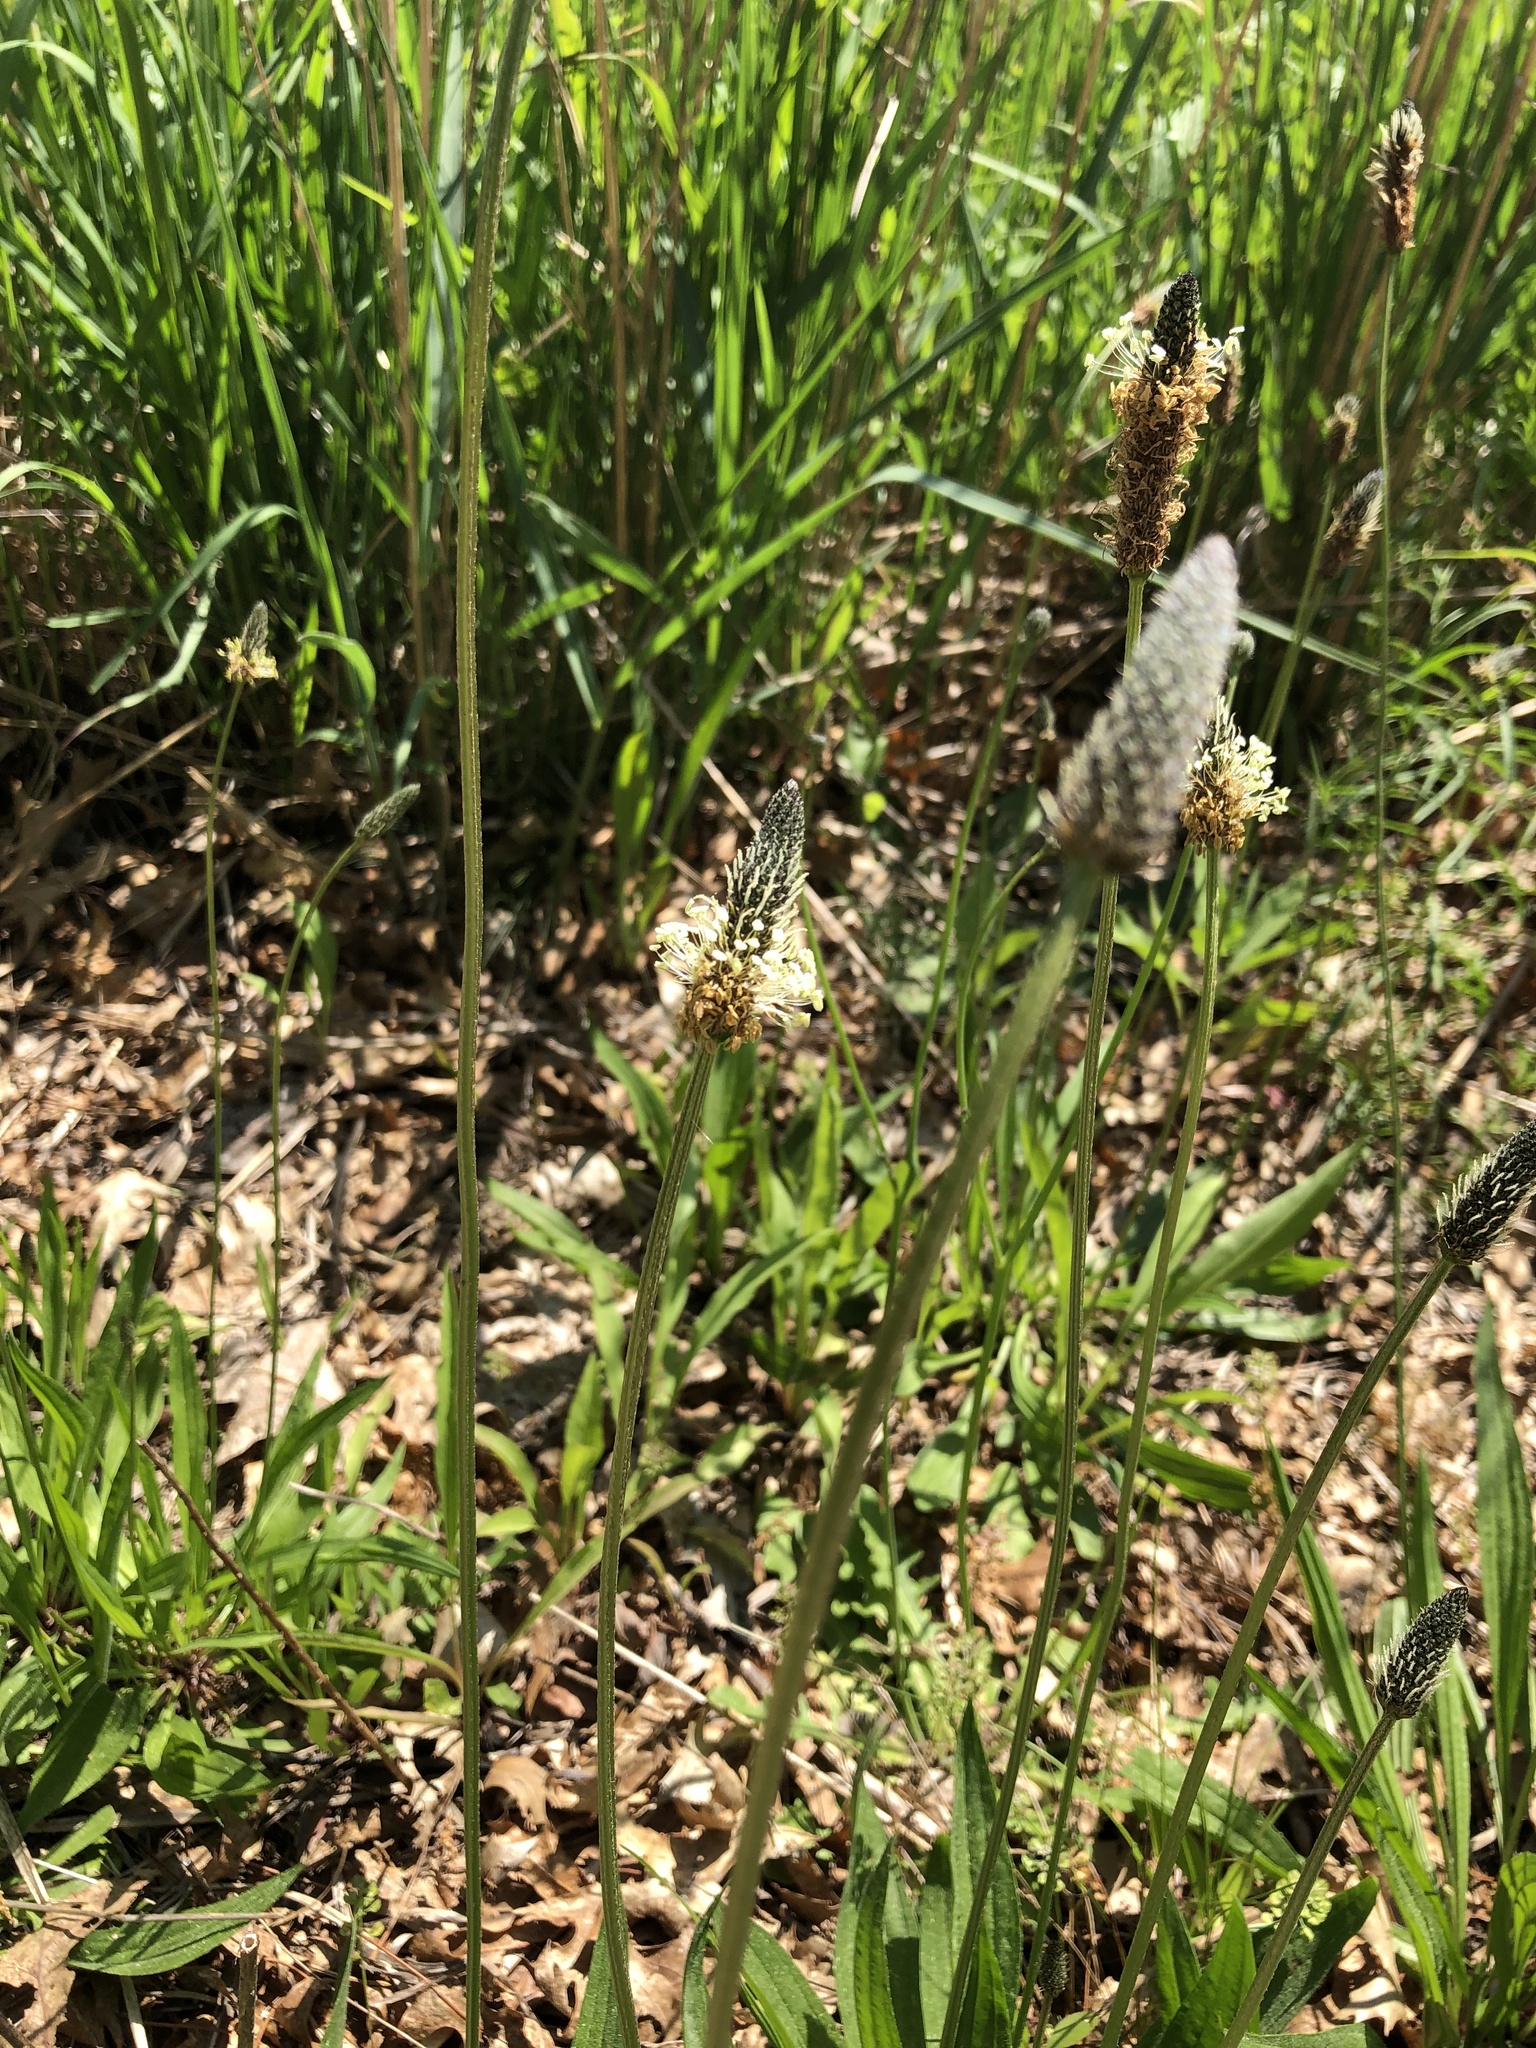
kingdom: Plantae
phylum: Tracheophyta
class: Magnoliopsida
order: Lamiales
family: Plantaginaceae
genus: Plantago
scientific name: Plantago lanceolata
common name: Ribwort plantain
